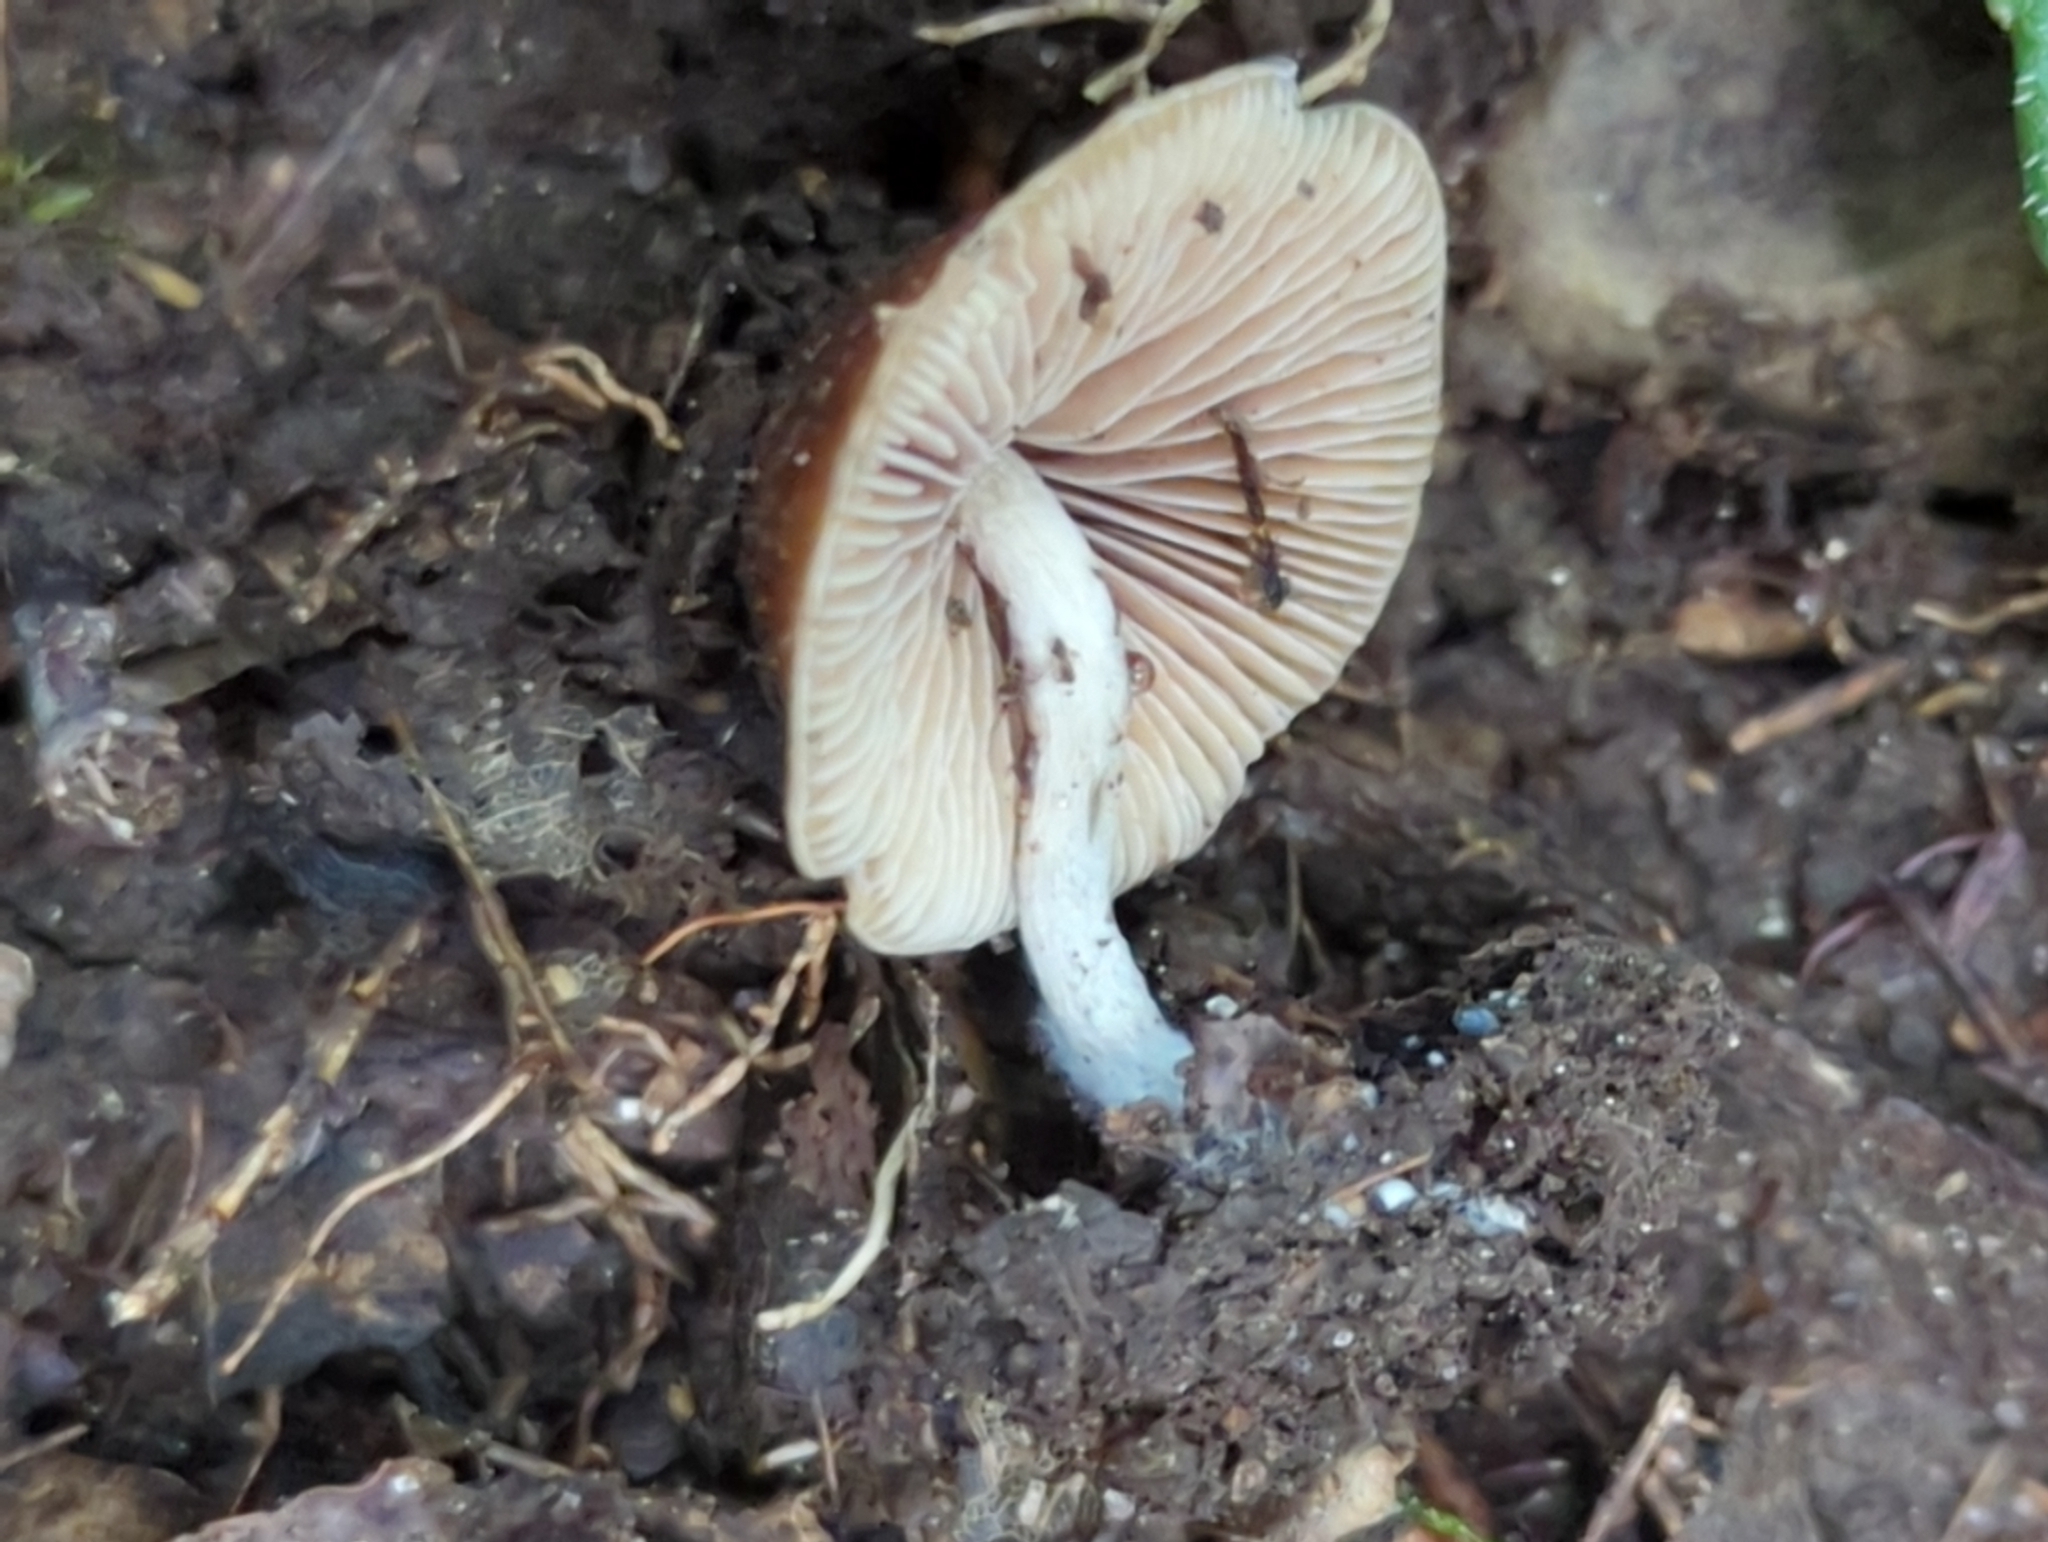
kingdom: Fungi
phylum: Basidiomycota
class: Agaricomycetes
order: Agaricales
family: Hymenogastraceae
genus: Psilocybe
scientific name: Psilocybe caerulipes
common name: Blue-foot
